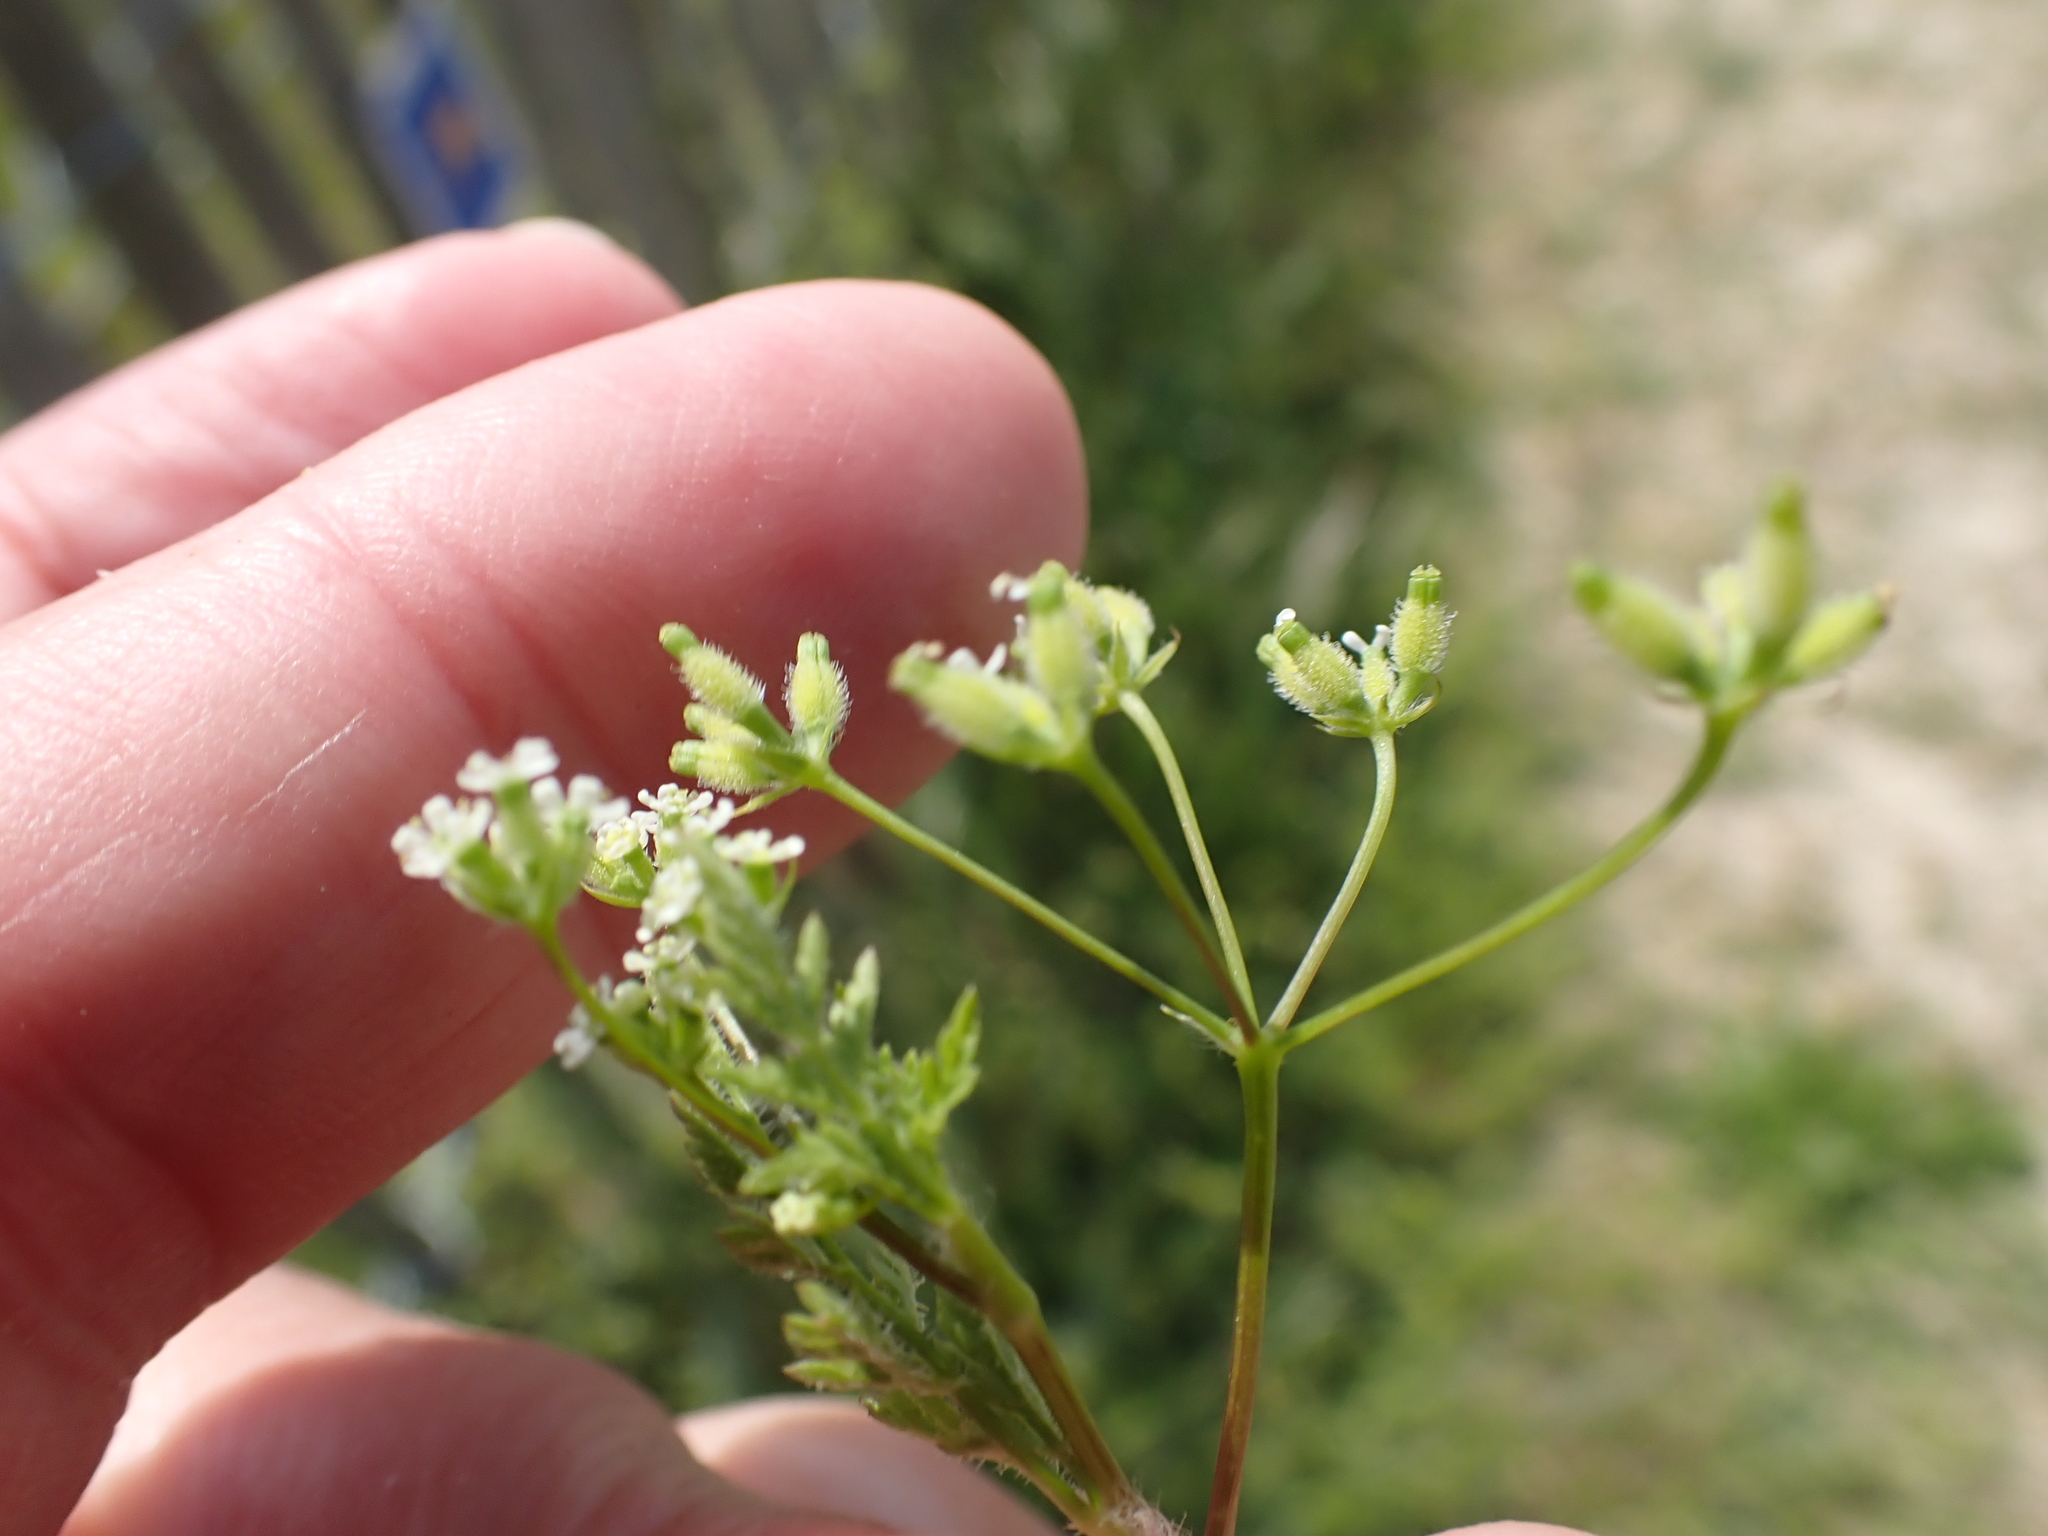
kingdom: Plantae
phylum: Tracheophyta
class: Magnoliopsida
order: Apiales
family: Apiaceae
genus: Anthriscus
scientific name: Anthriscus caucalis
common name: Bur chervil
